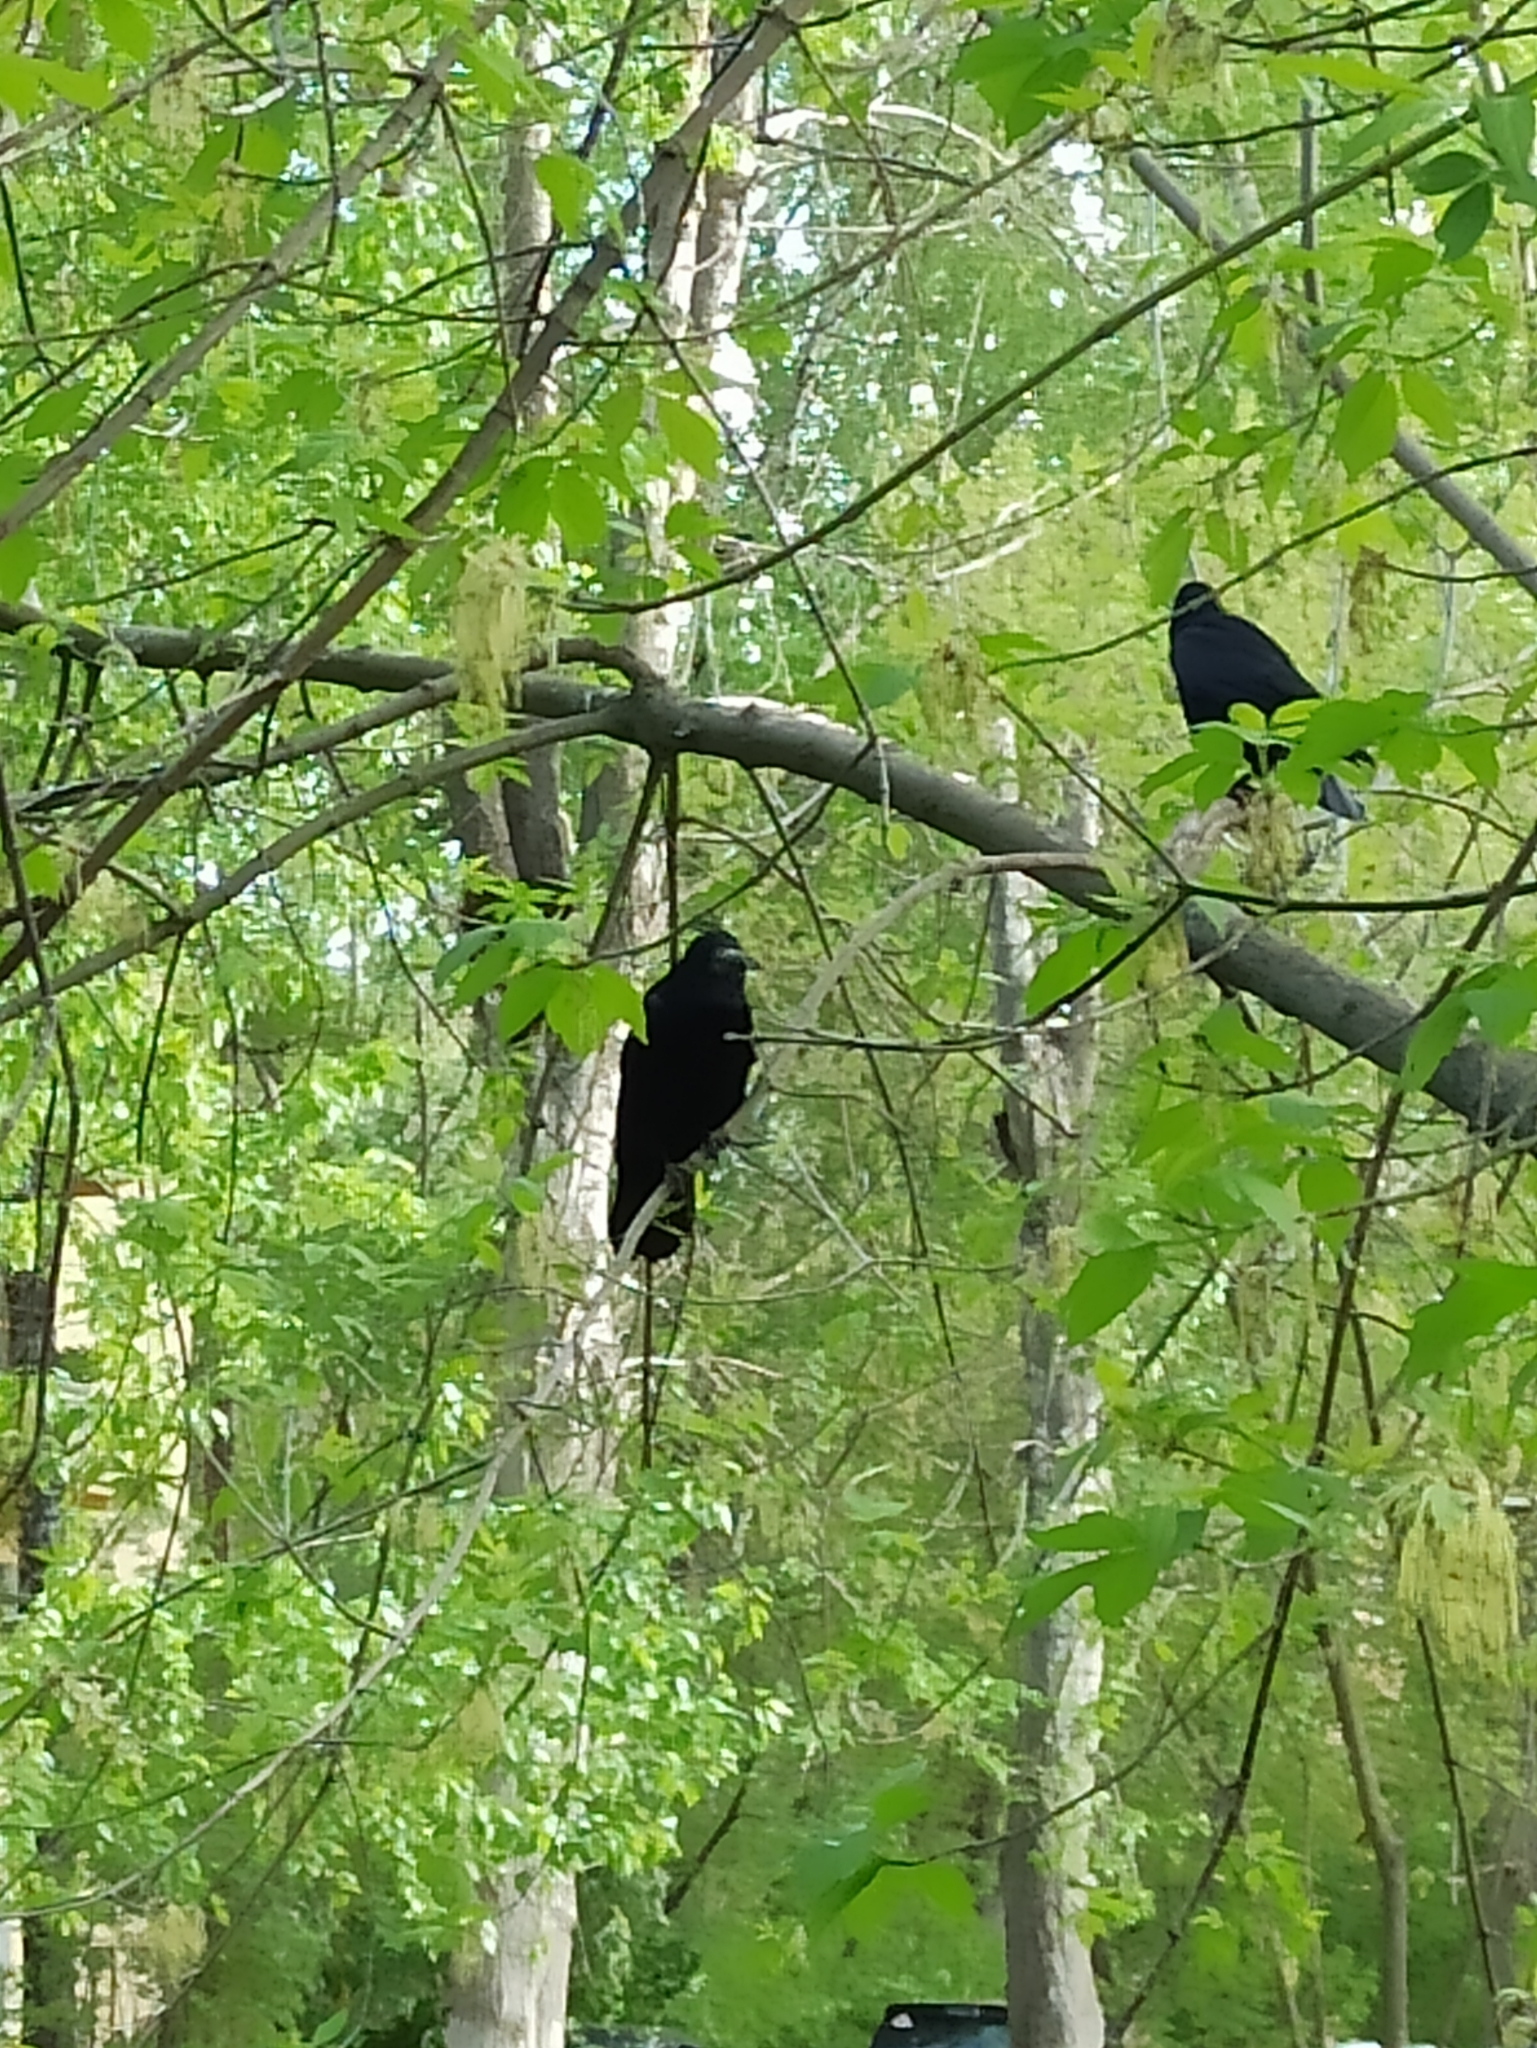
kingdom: Animalia
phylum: Chordata
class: Aves
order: Passeriformes
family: Corvidae
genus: Corvus
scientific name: Corvus frugilegus
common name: Rook
